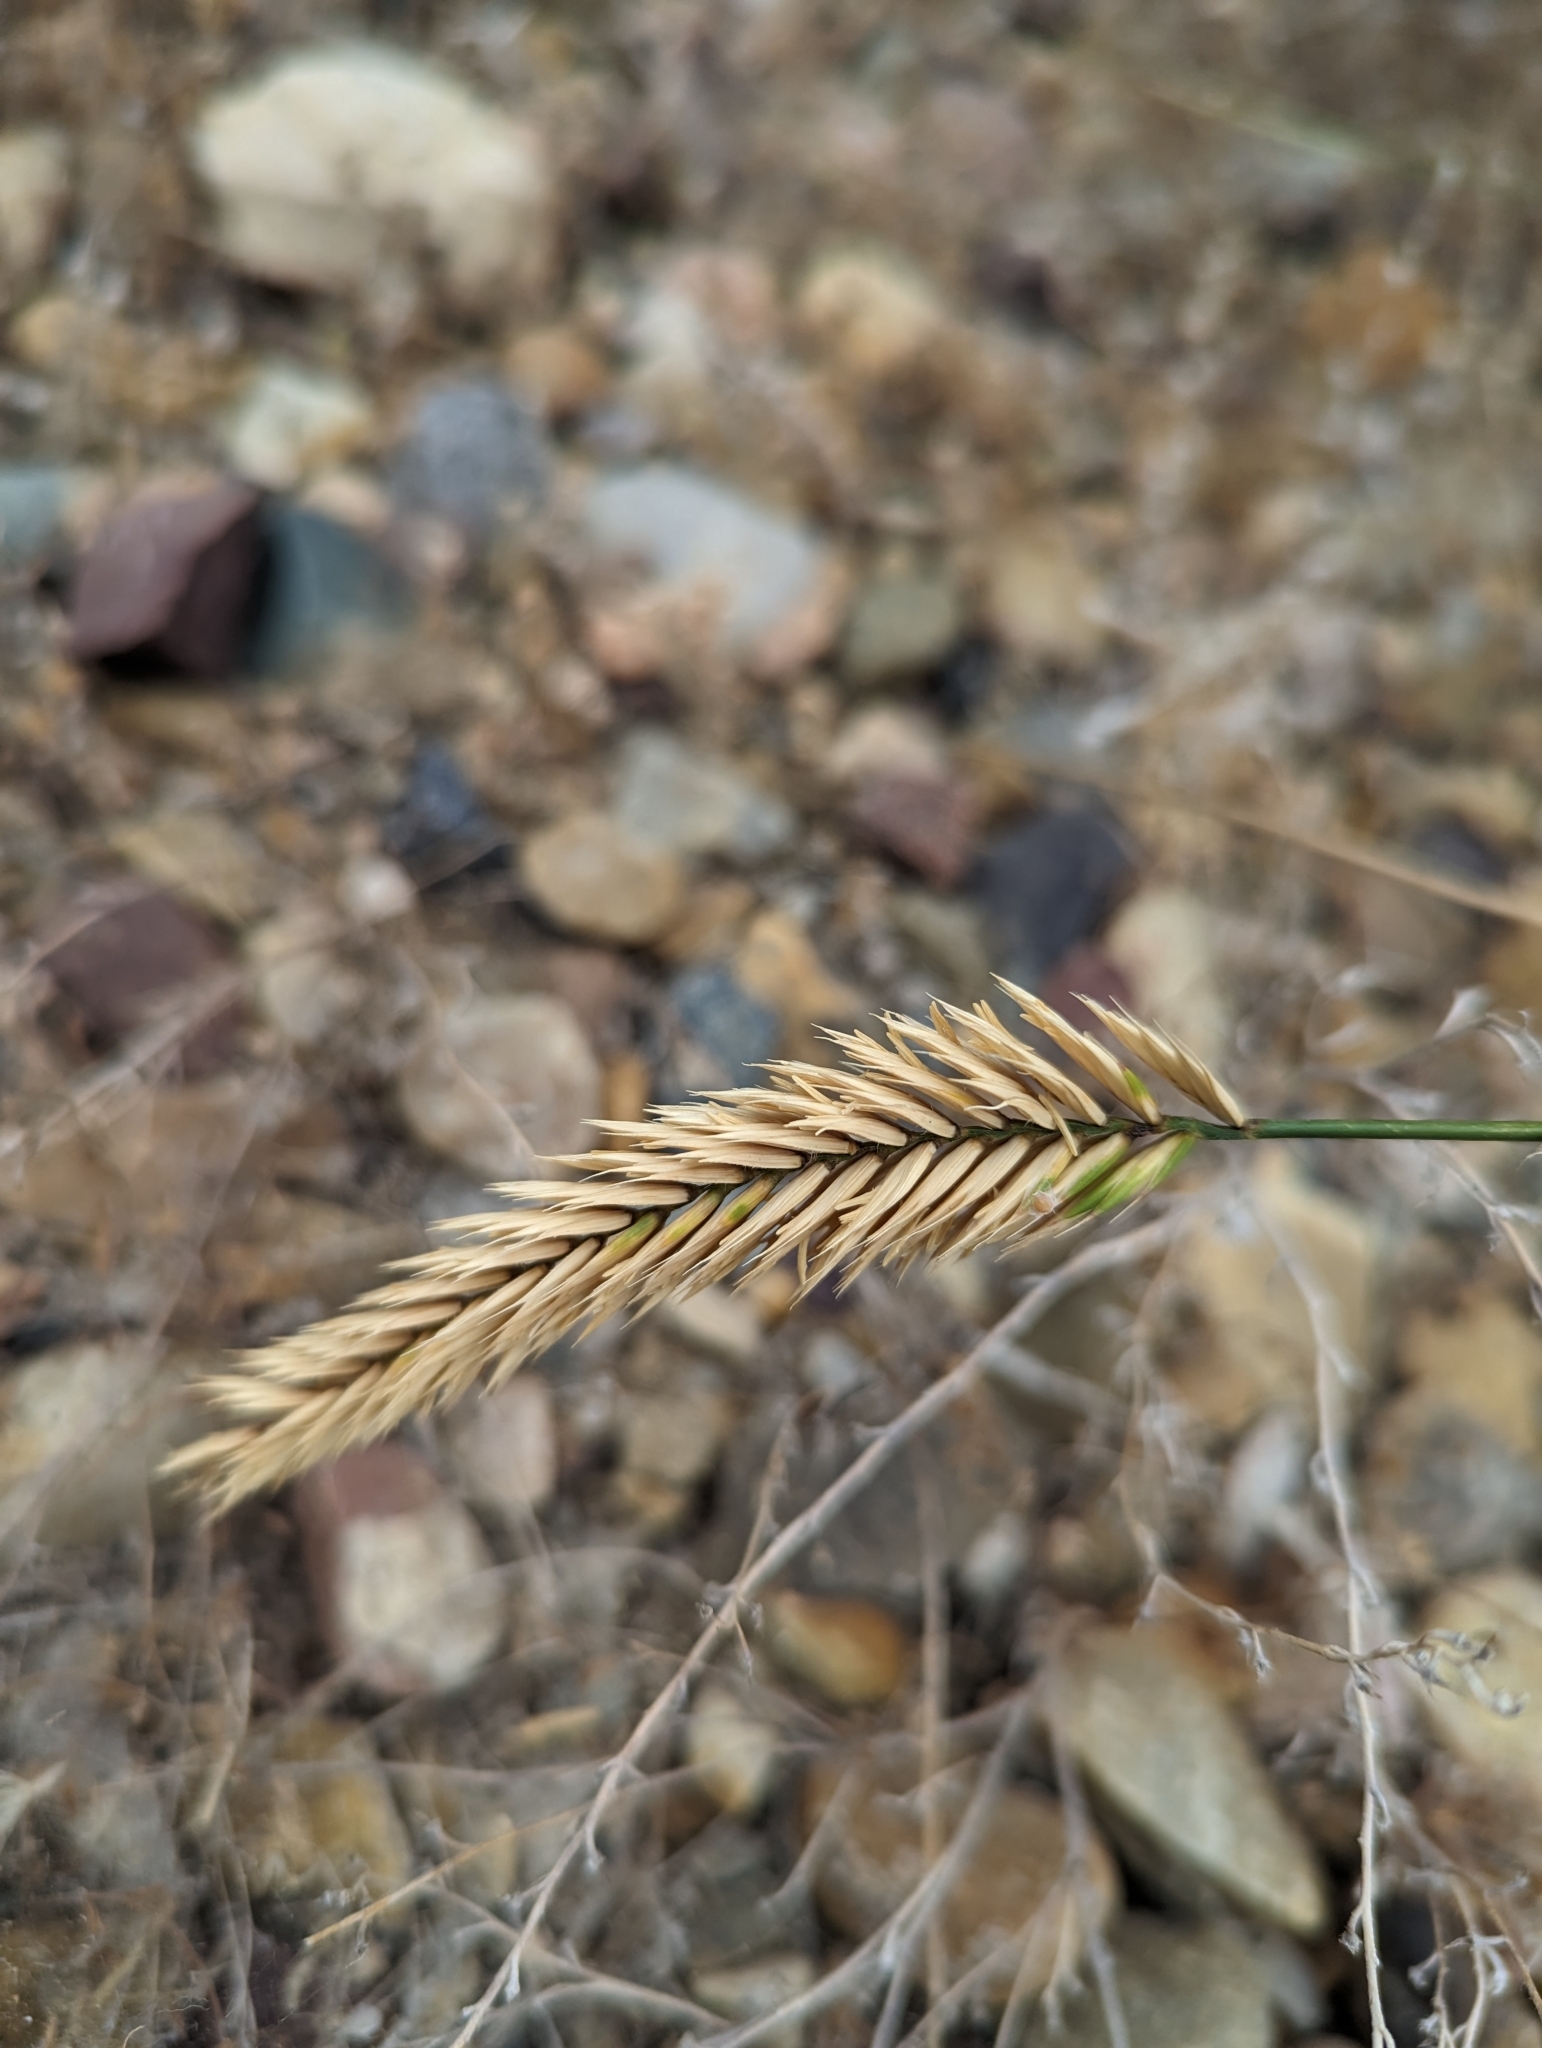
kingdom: Plantae
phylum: Tracheophyta
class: Liliopsida
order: Poales
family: Poaceae
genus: Agropyron
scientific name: Agropyron cristatum
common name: Crested wheatgrass
